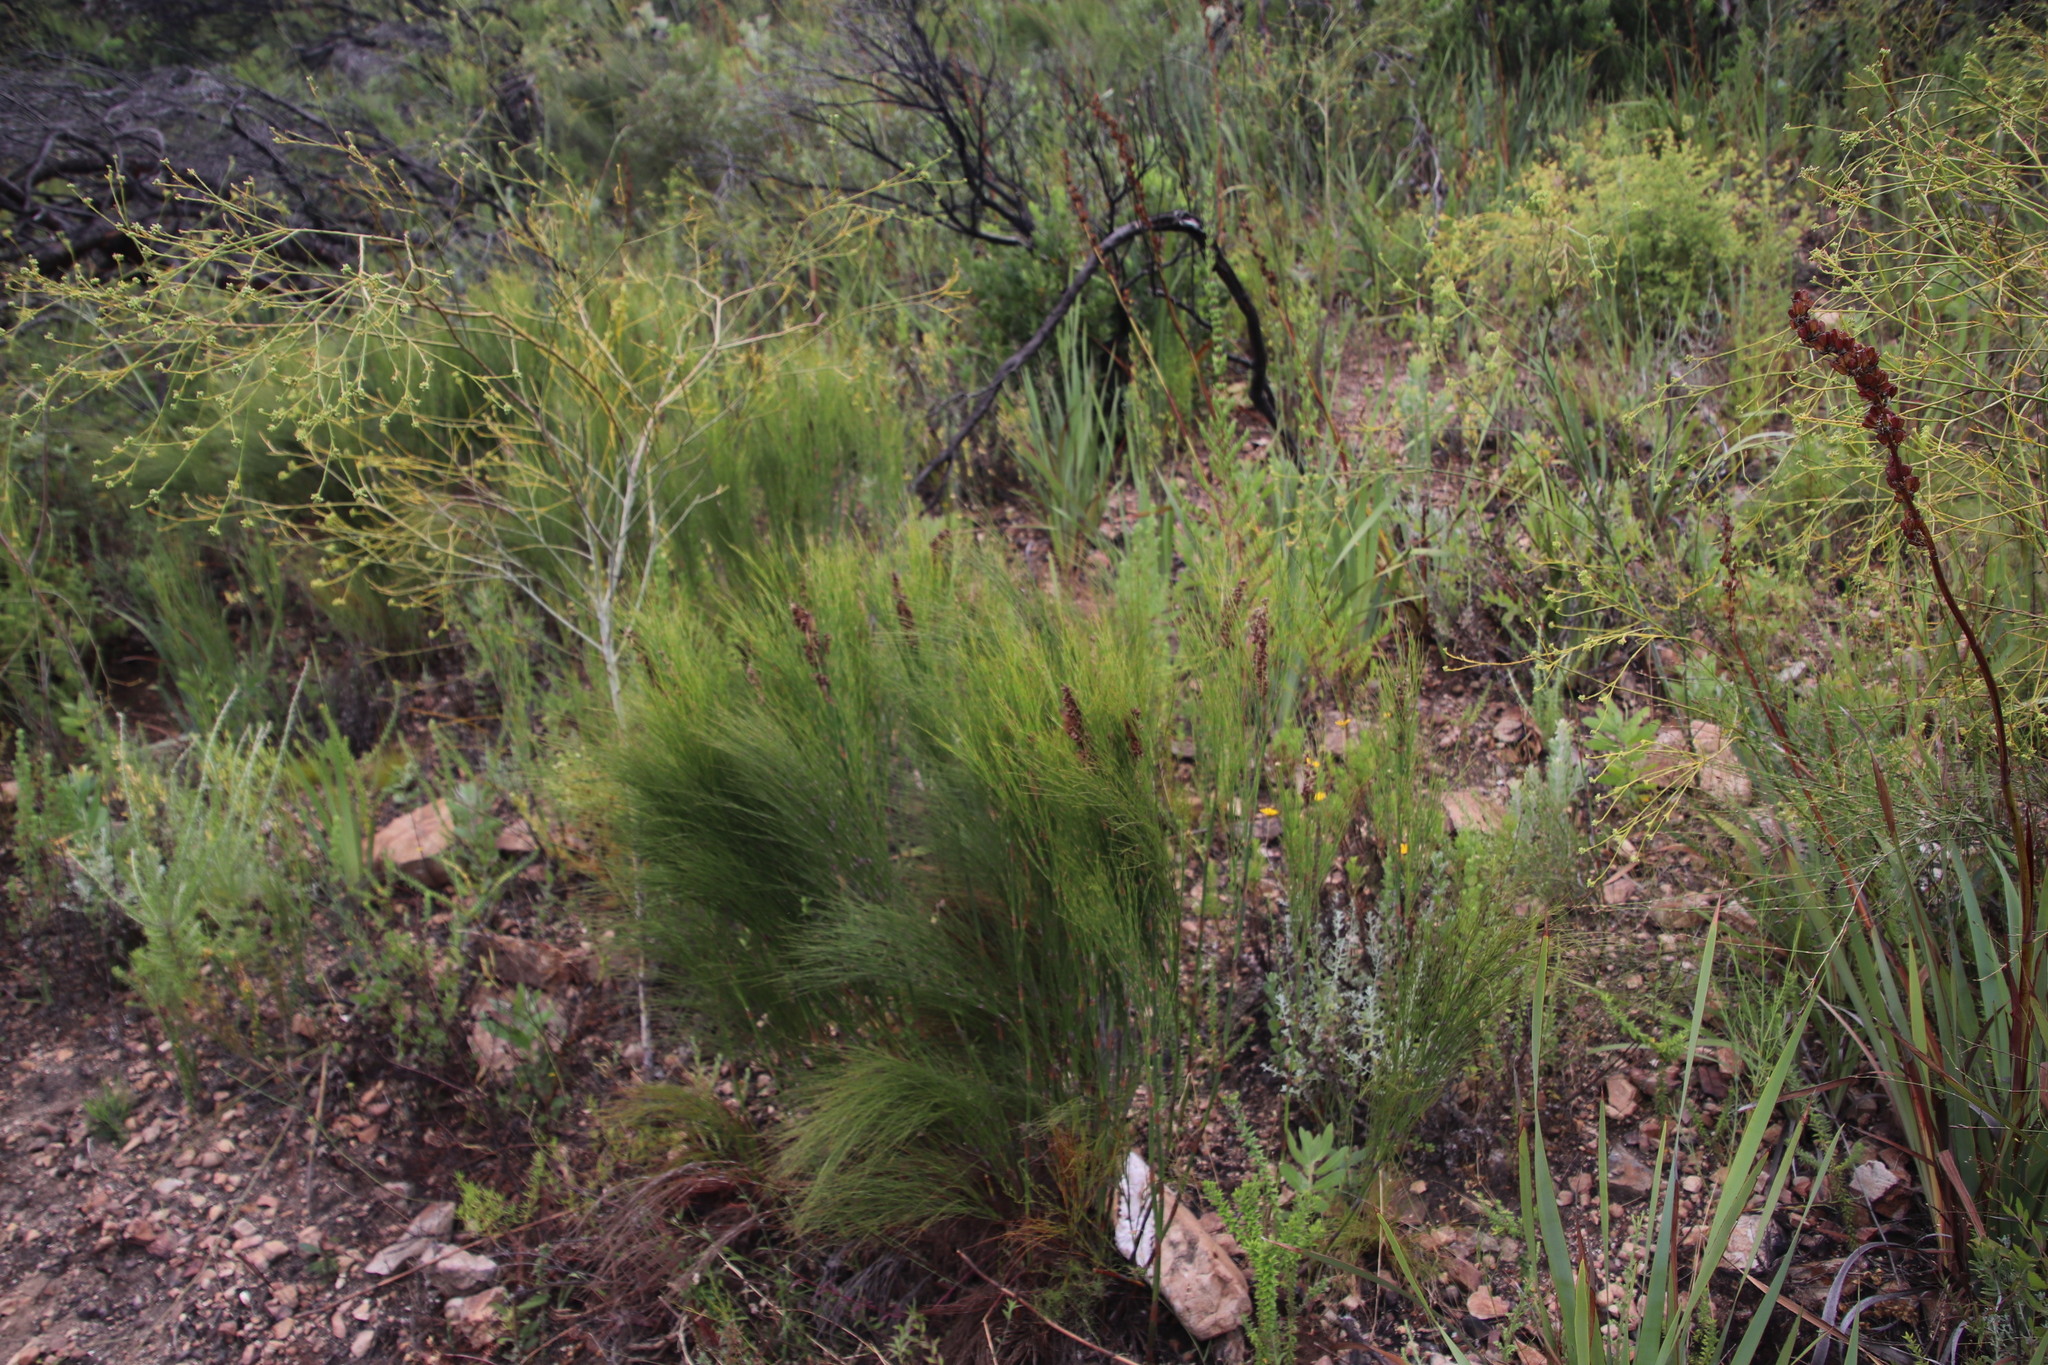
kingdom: Plantae
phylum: Tracheophyta
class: Liliopsida
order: Poales
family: Restionaceae
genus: Cannomois
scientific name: Cannomois virgata
